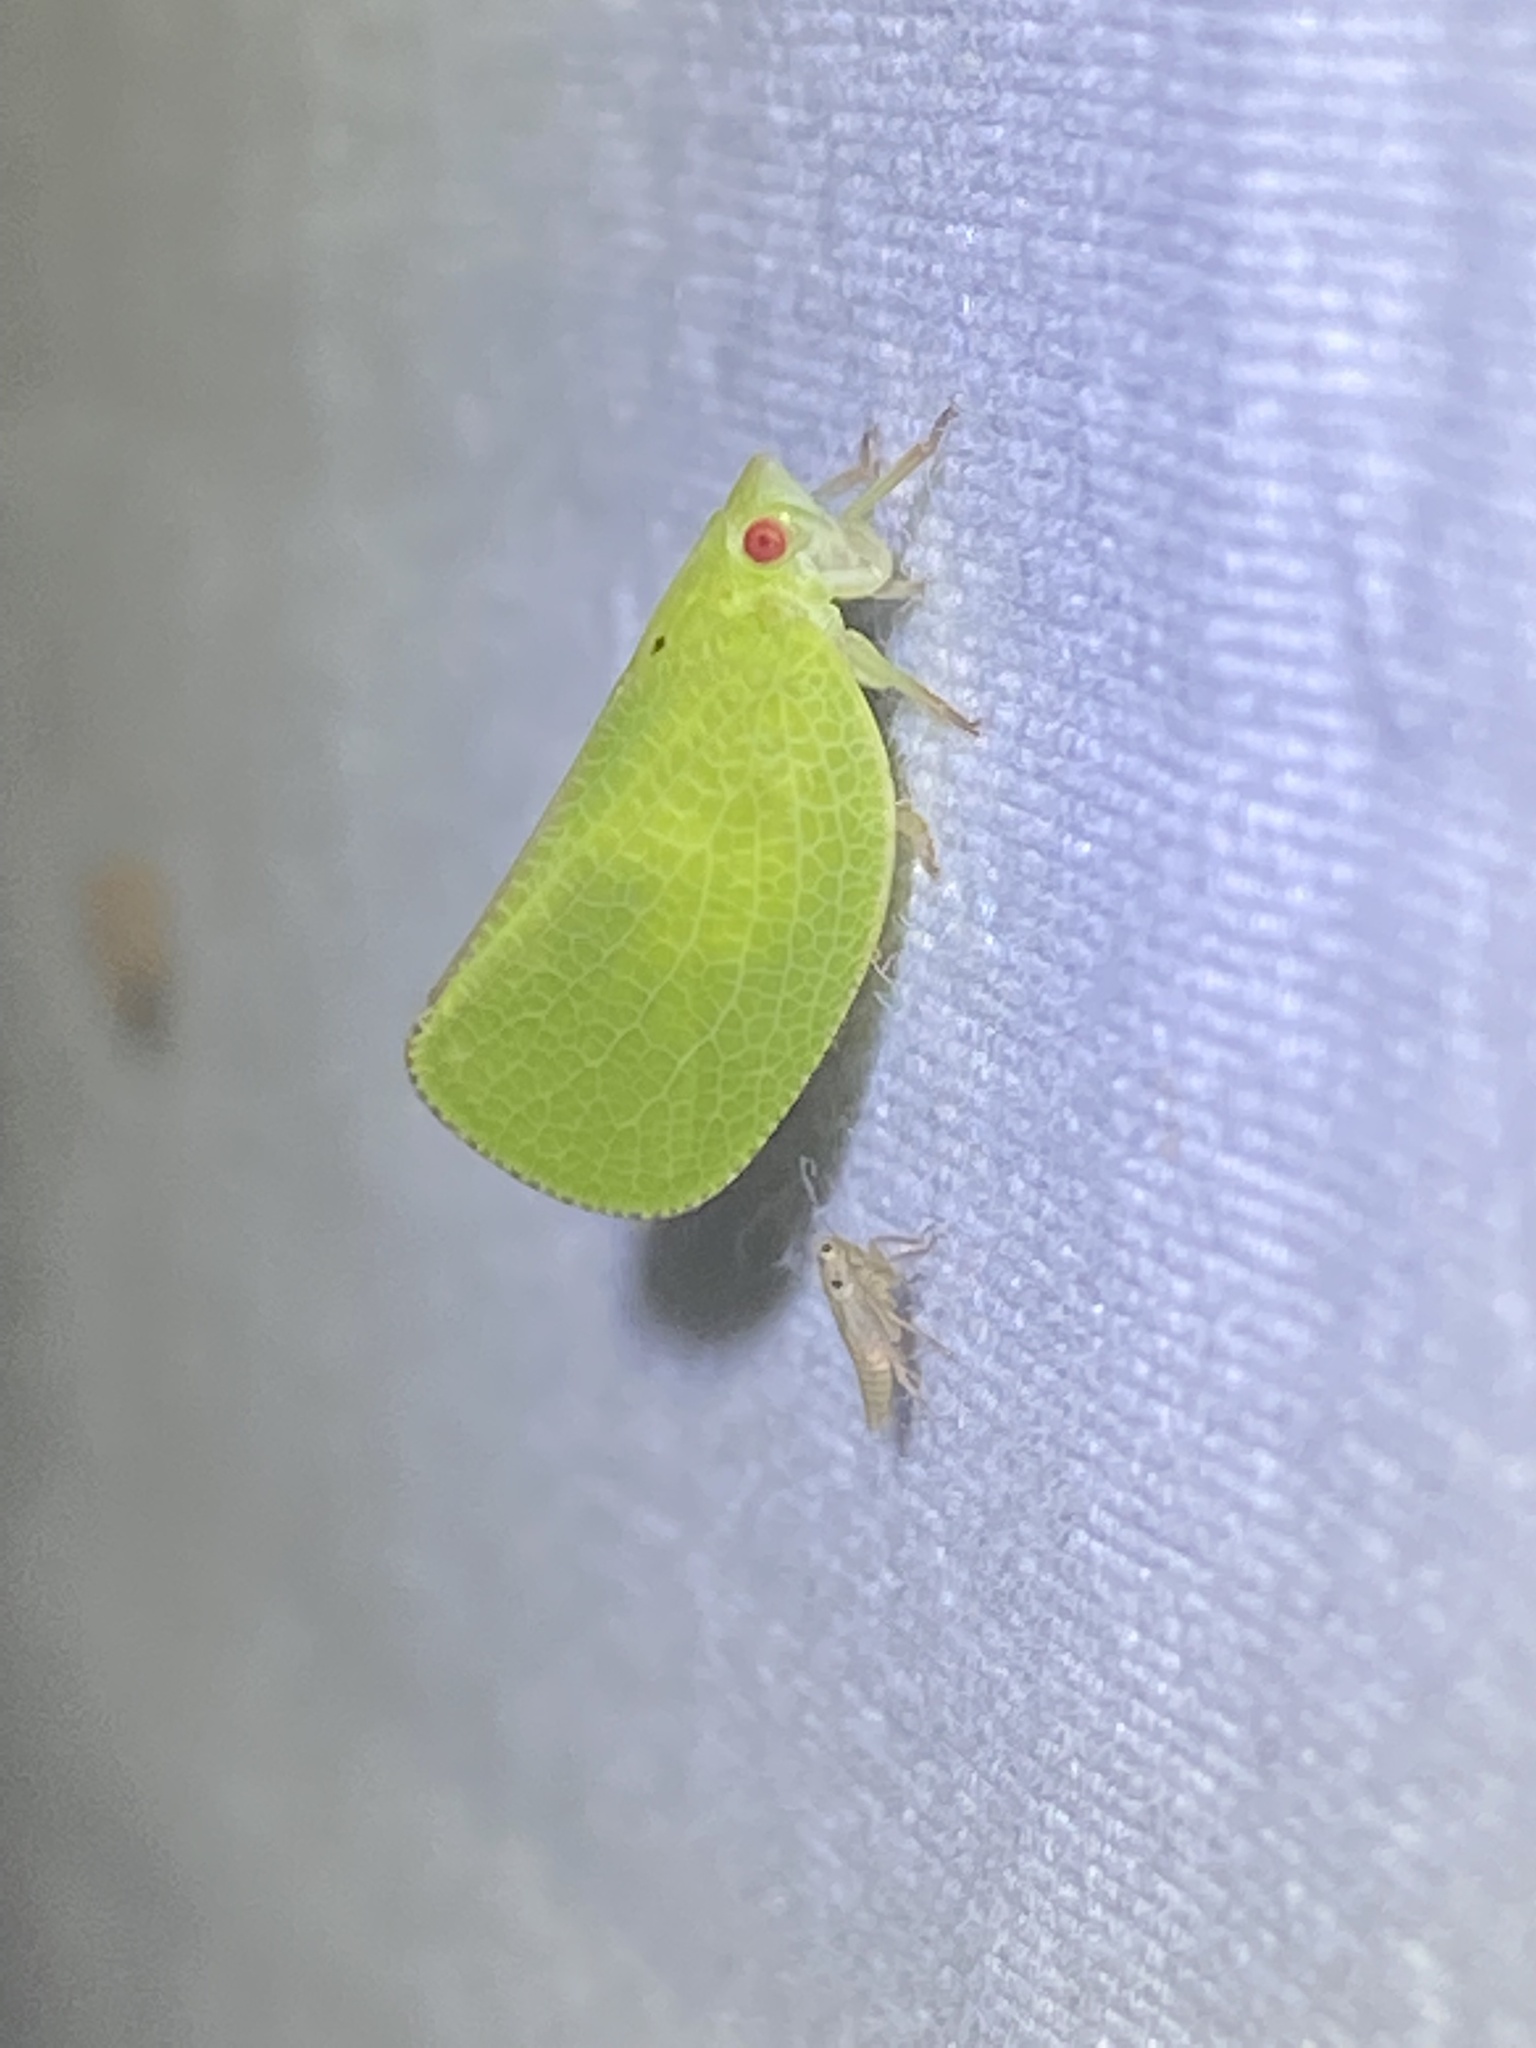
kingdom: Animalia
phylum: Arthropoda
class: Insecta
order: Hemiptera
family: Acanaloniidae
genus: Acanalonia
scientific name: Acanalonia conica
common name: Green cone-headed planthopper
